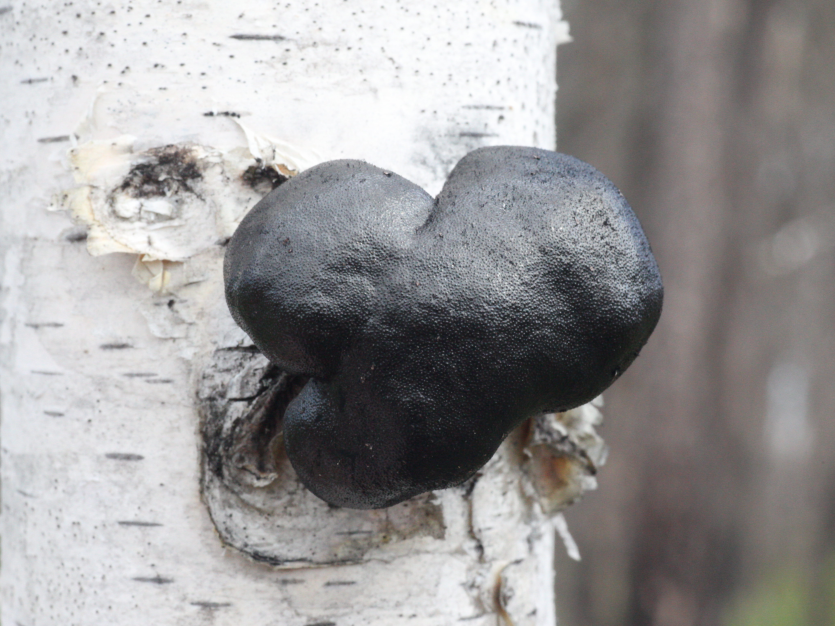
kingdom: Fungi
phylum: Ascomycota
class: Sordariomycetes
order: Xylariales
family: Hypoxylaceae
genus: Daldinia
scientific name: Daldinia loculata
